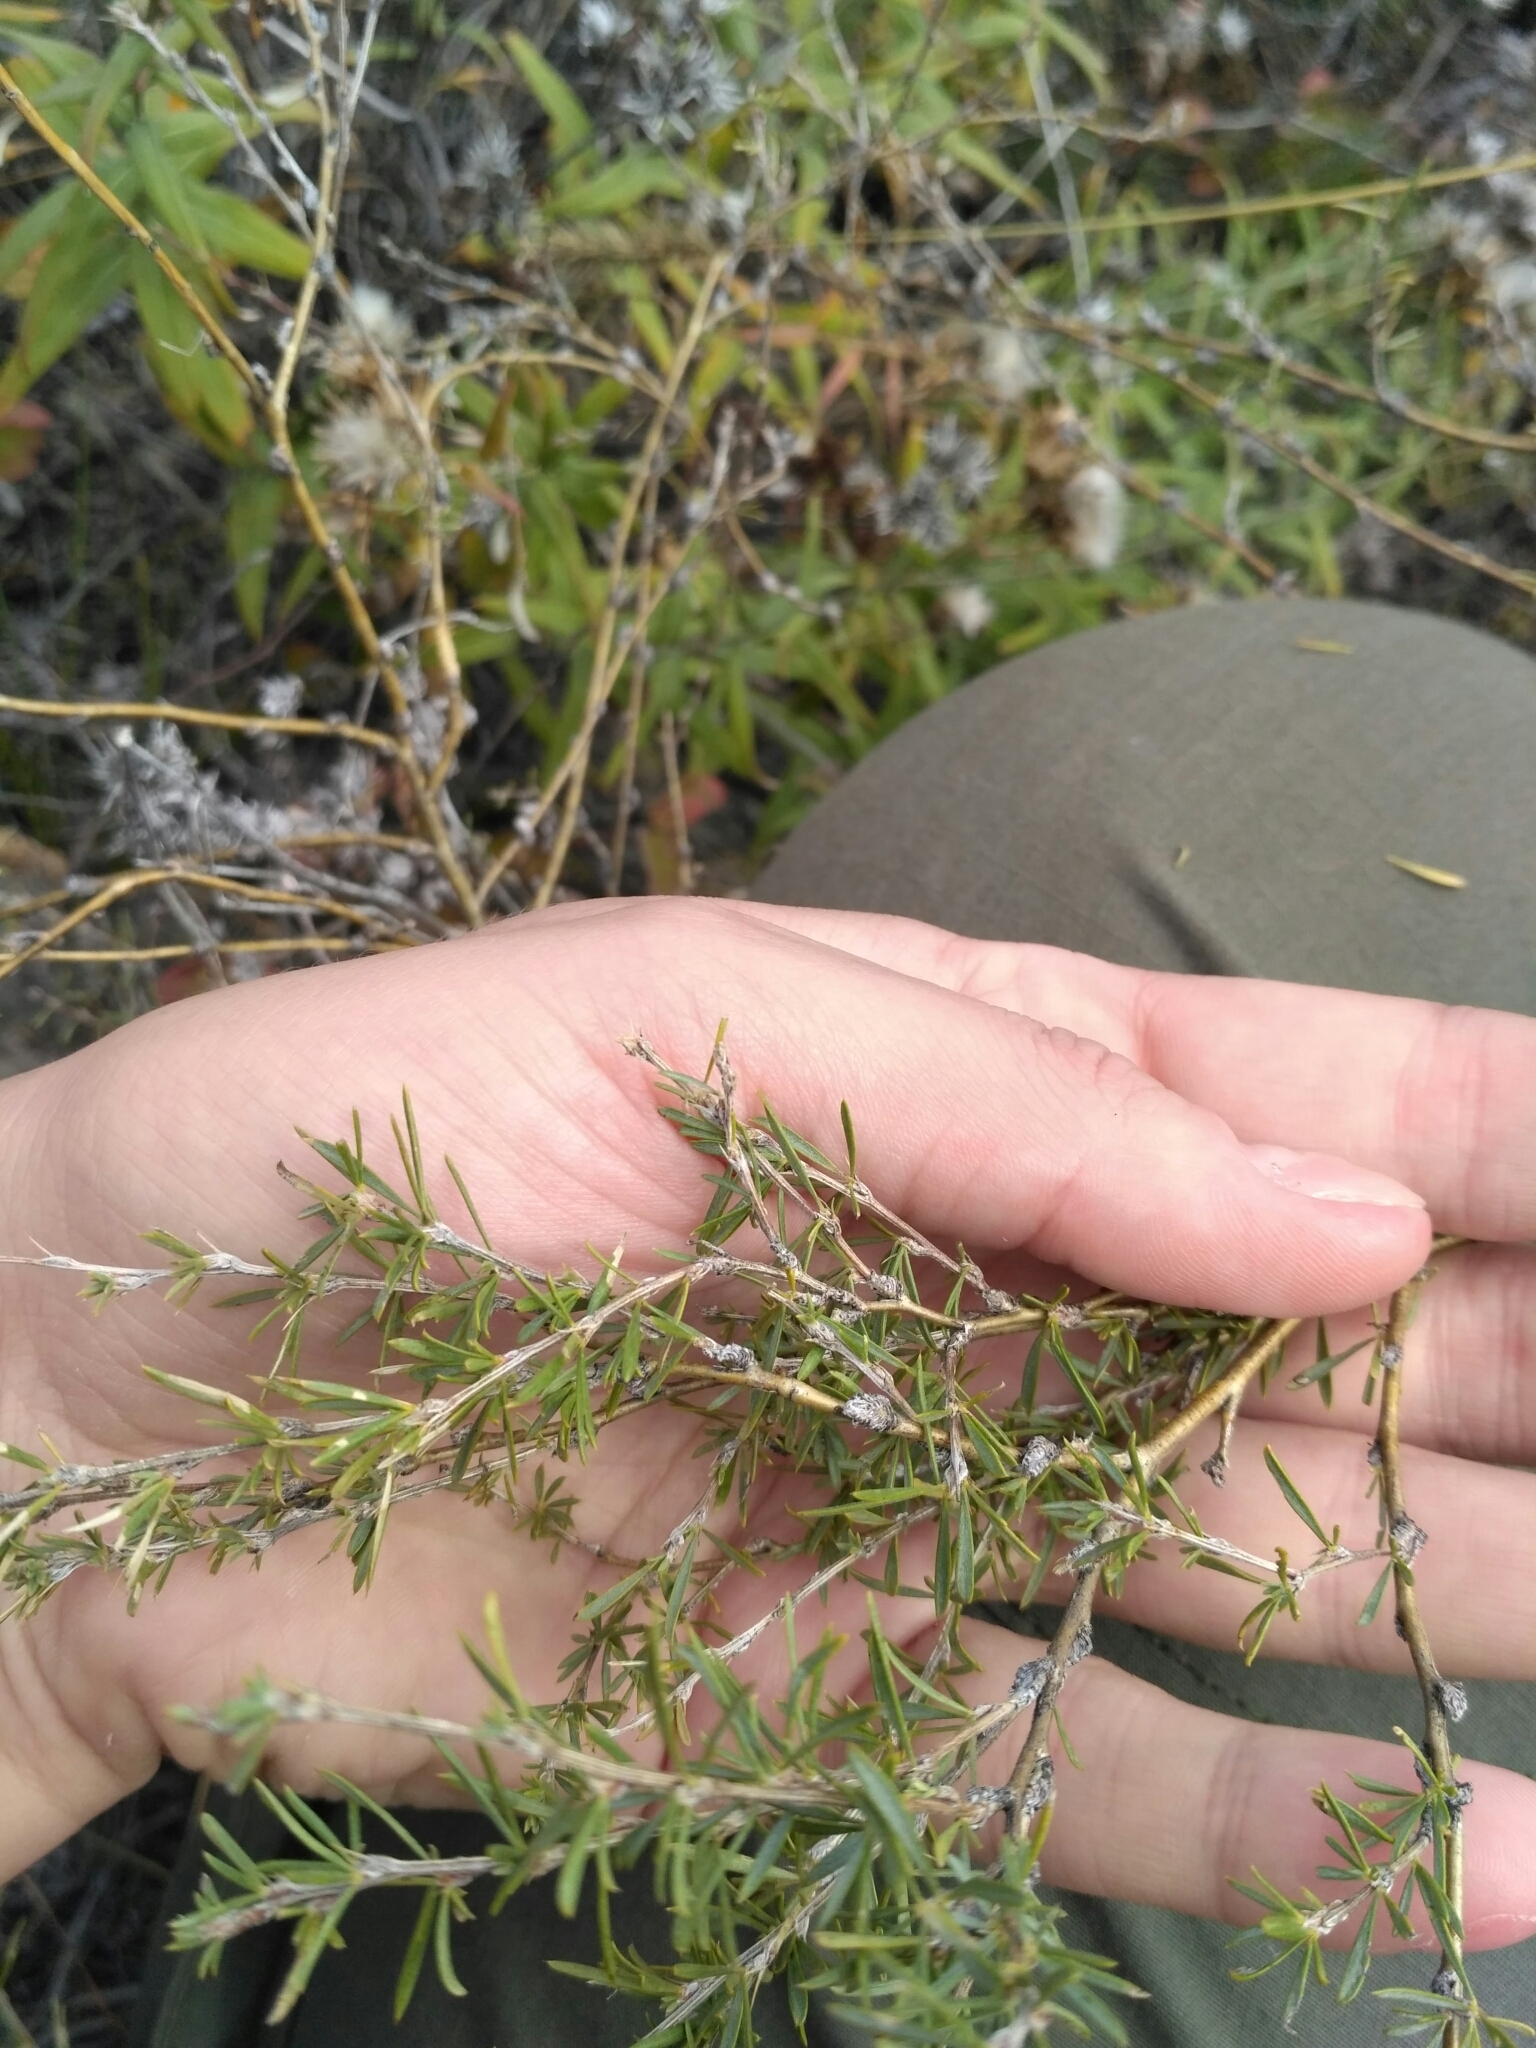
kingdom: Plantae
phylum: Tracheophyta
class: Magnoliopsida
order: Fabales
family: Fabaceae
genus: Caragana
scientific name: Caragana pygmaea
